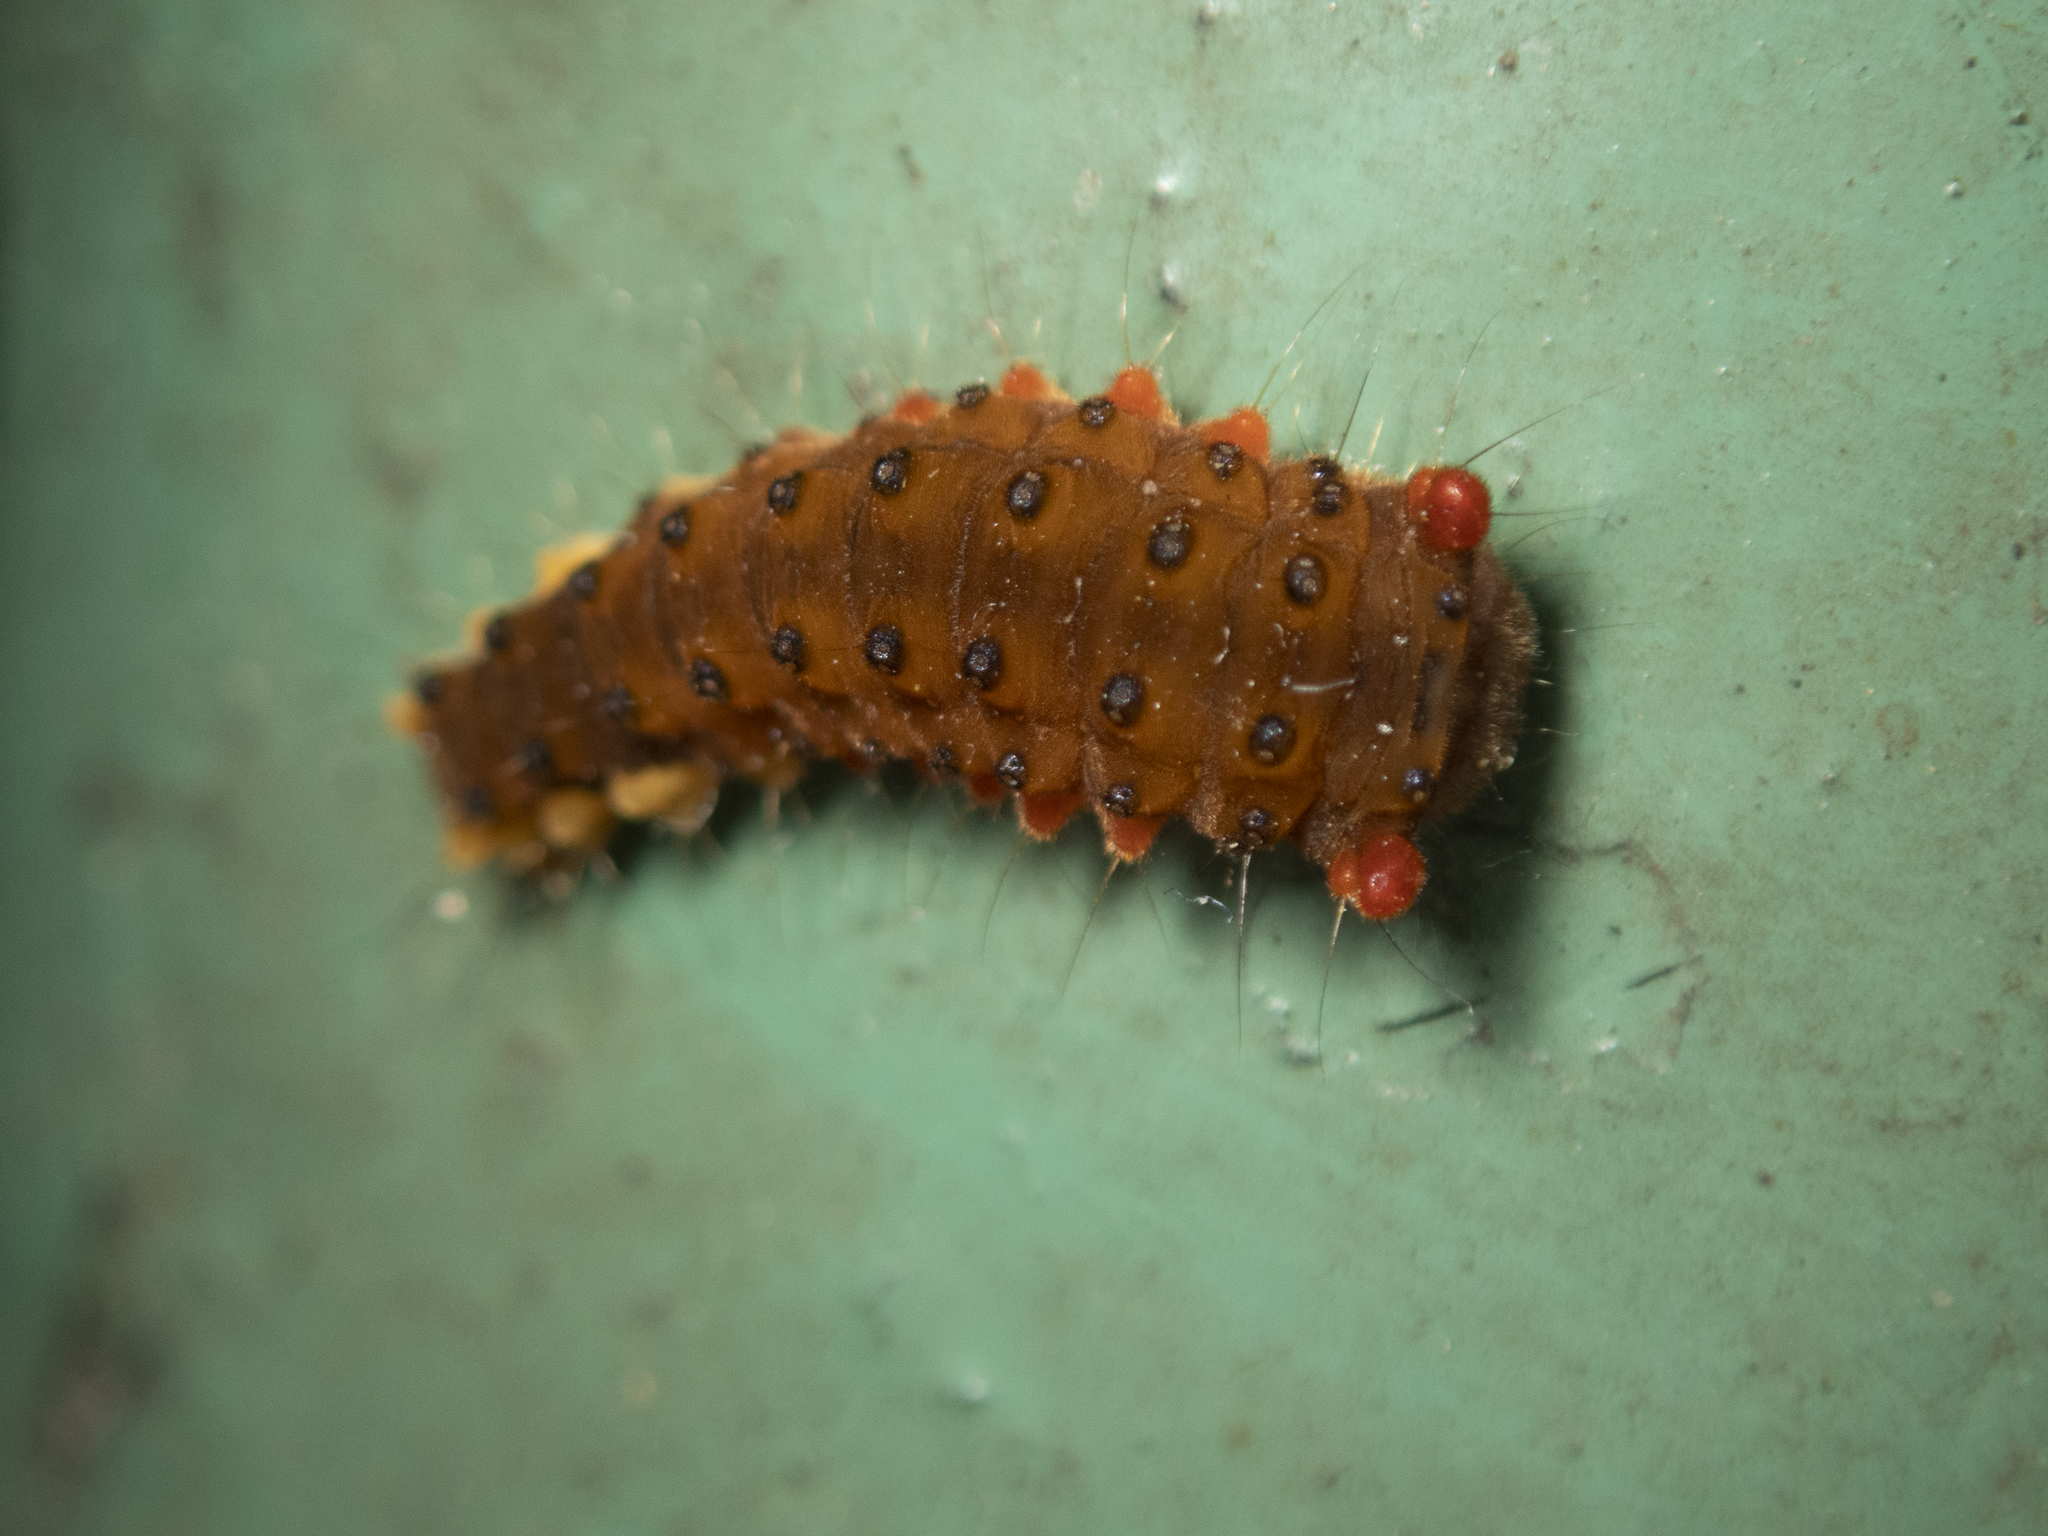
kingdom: Animalia
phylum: Arthropoda
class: Insecta
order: Lepidoptera
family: Zygaenidae
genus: Trypanophora
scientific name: Trypanophora semihyalina
